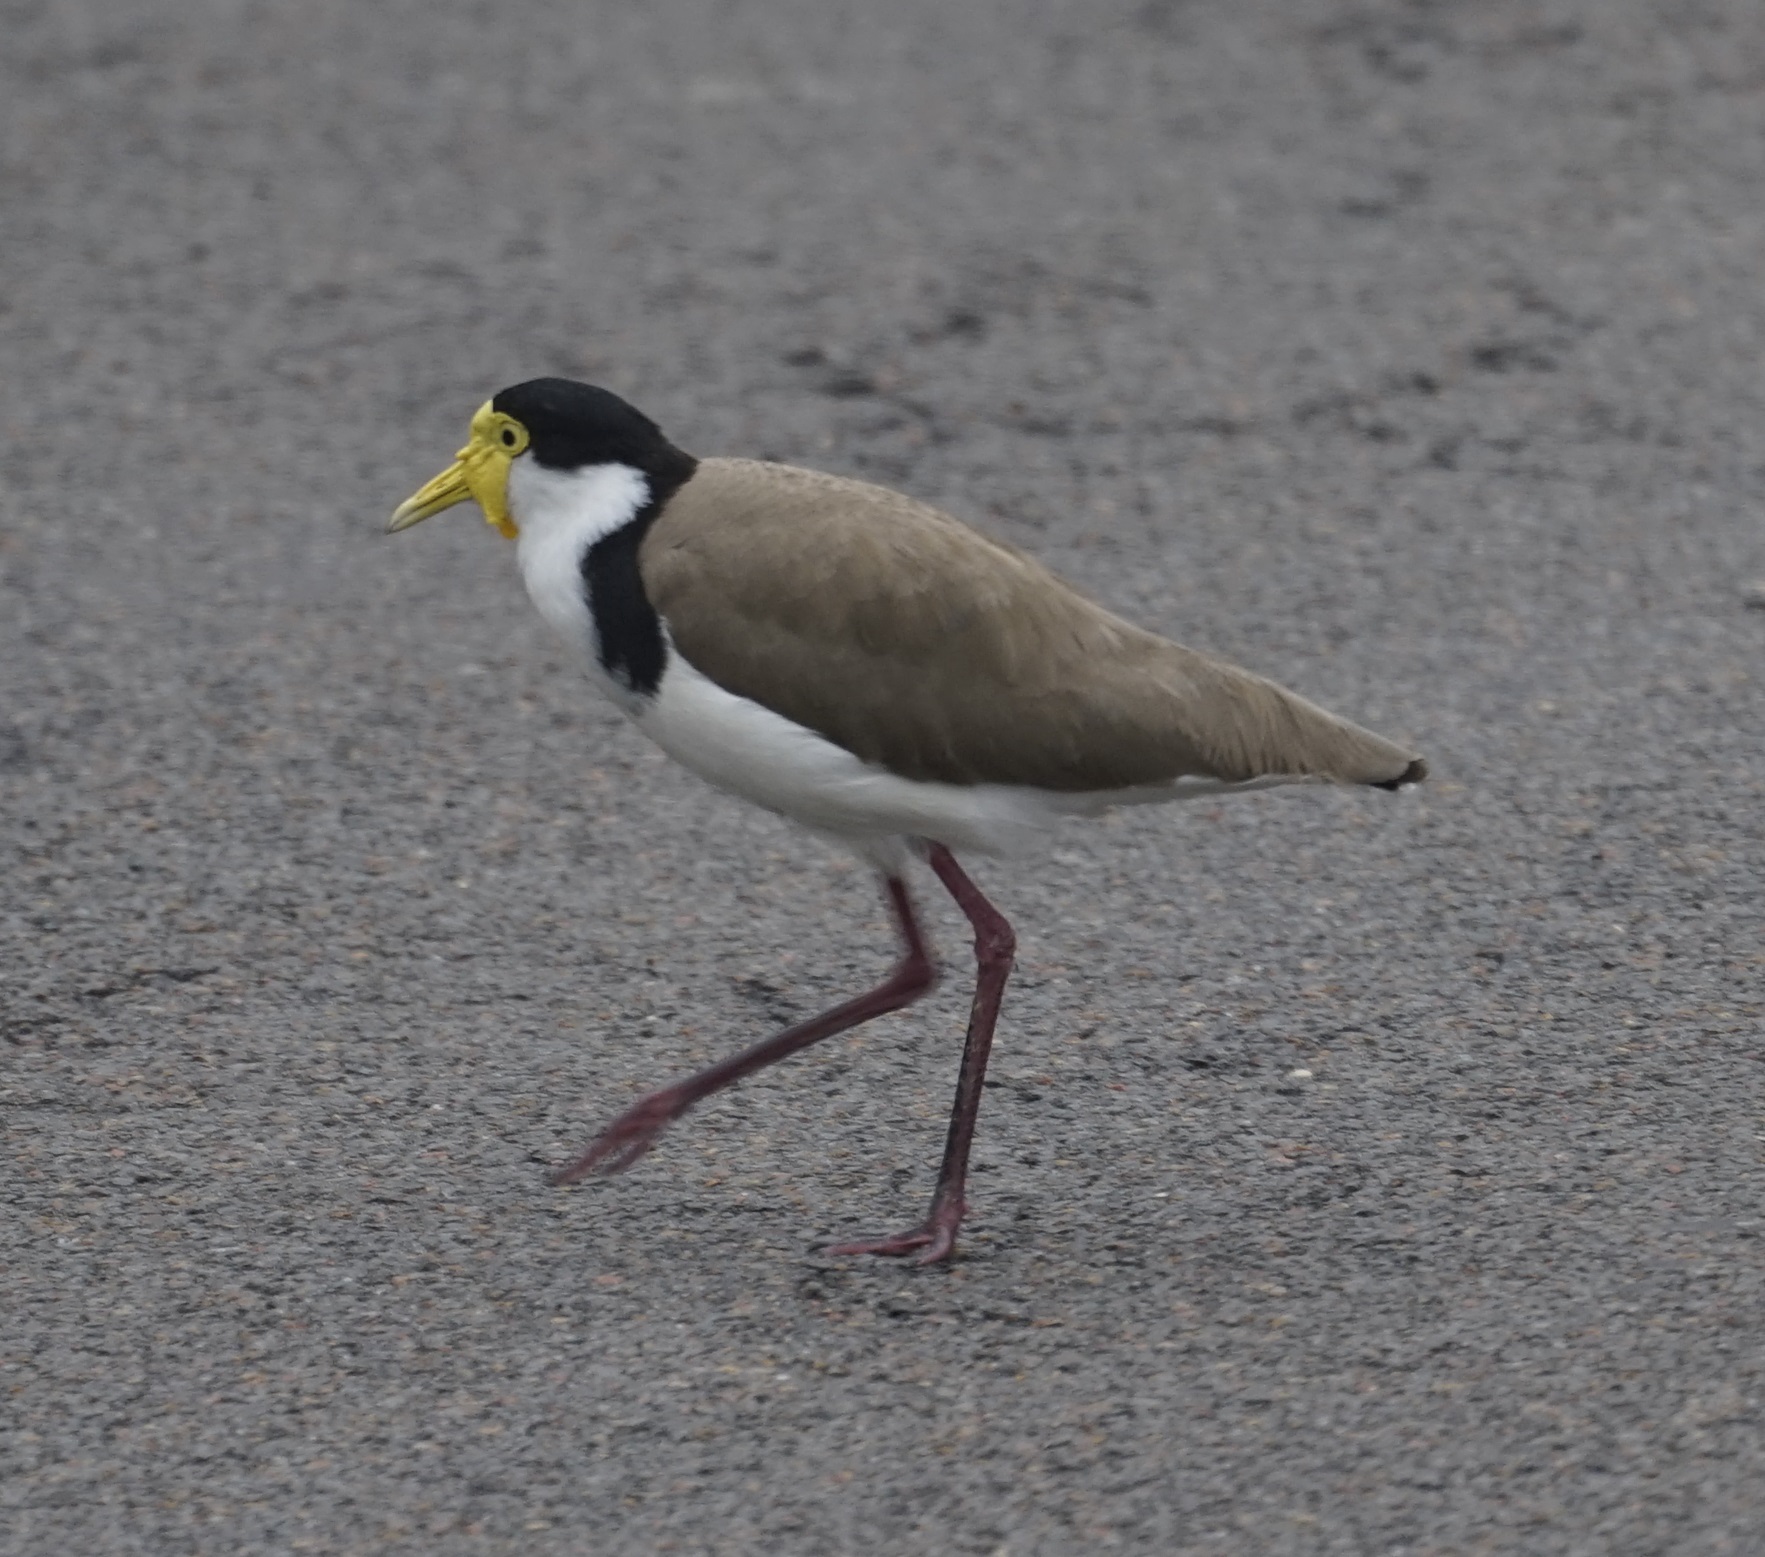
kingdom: Animalia
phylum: Chordata
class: Aves
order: Charadriiformes
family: Charadriidae
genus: Vanellus
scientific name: Vanellus miles
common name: Masked lapwing
